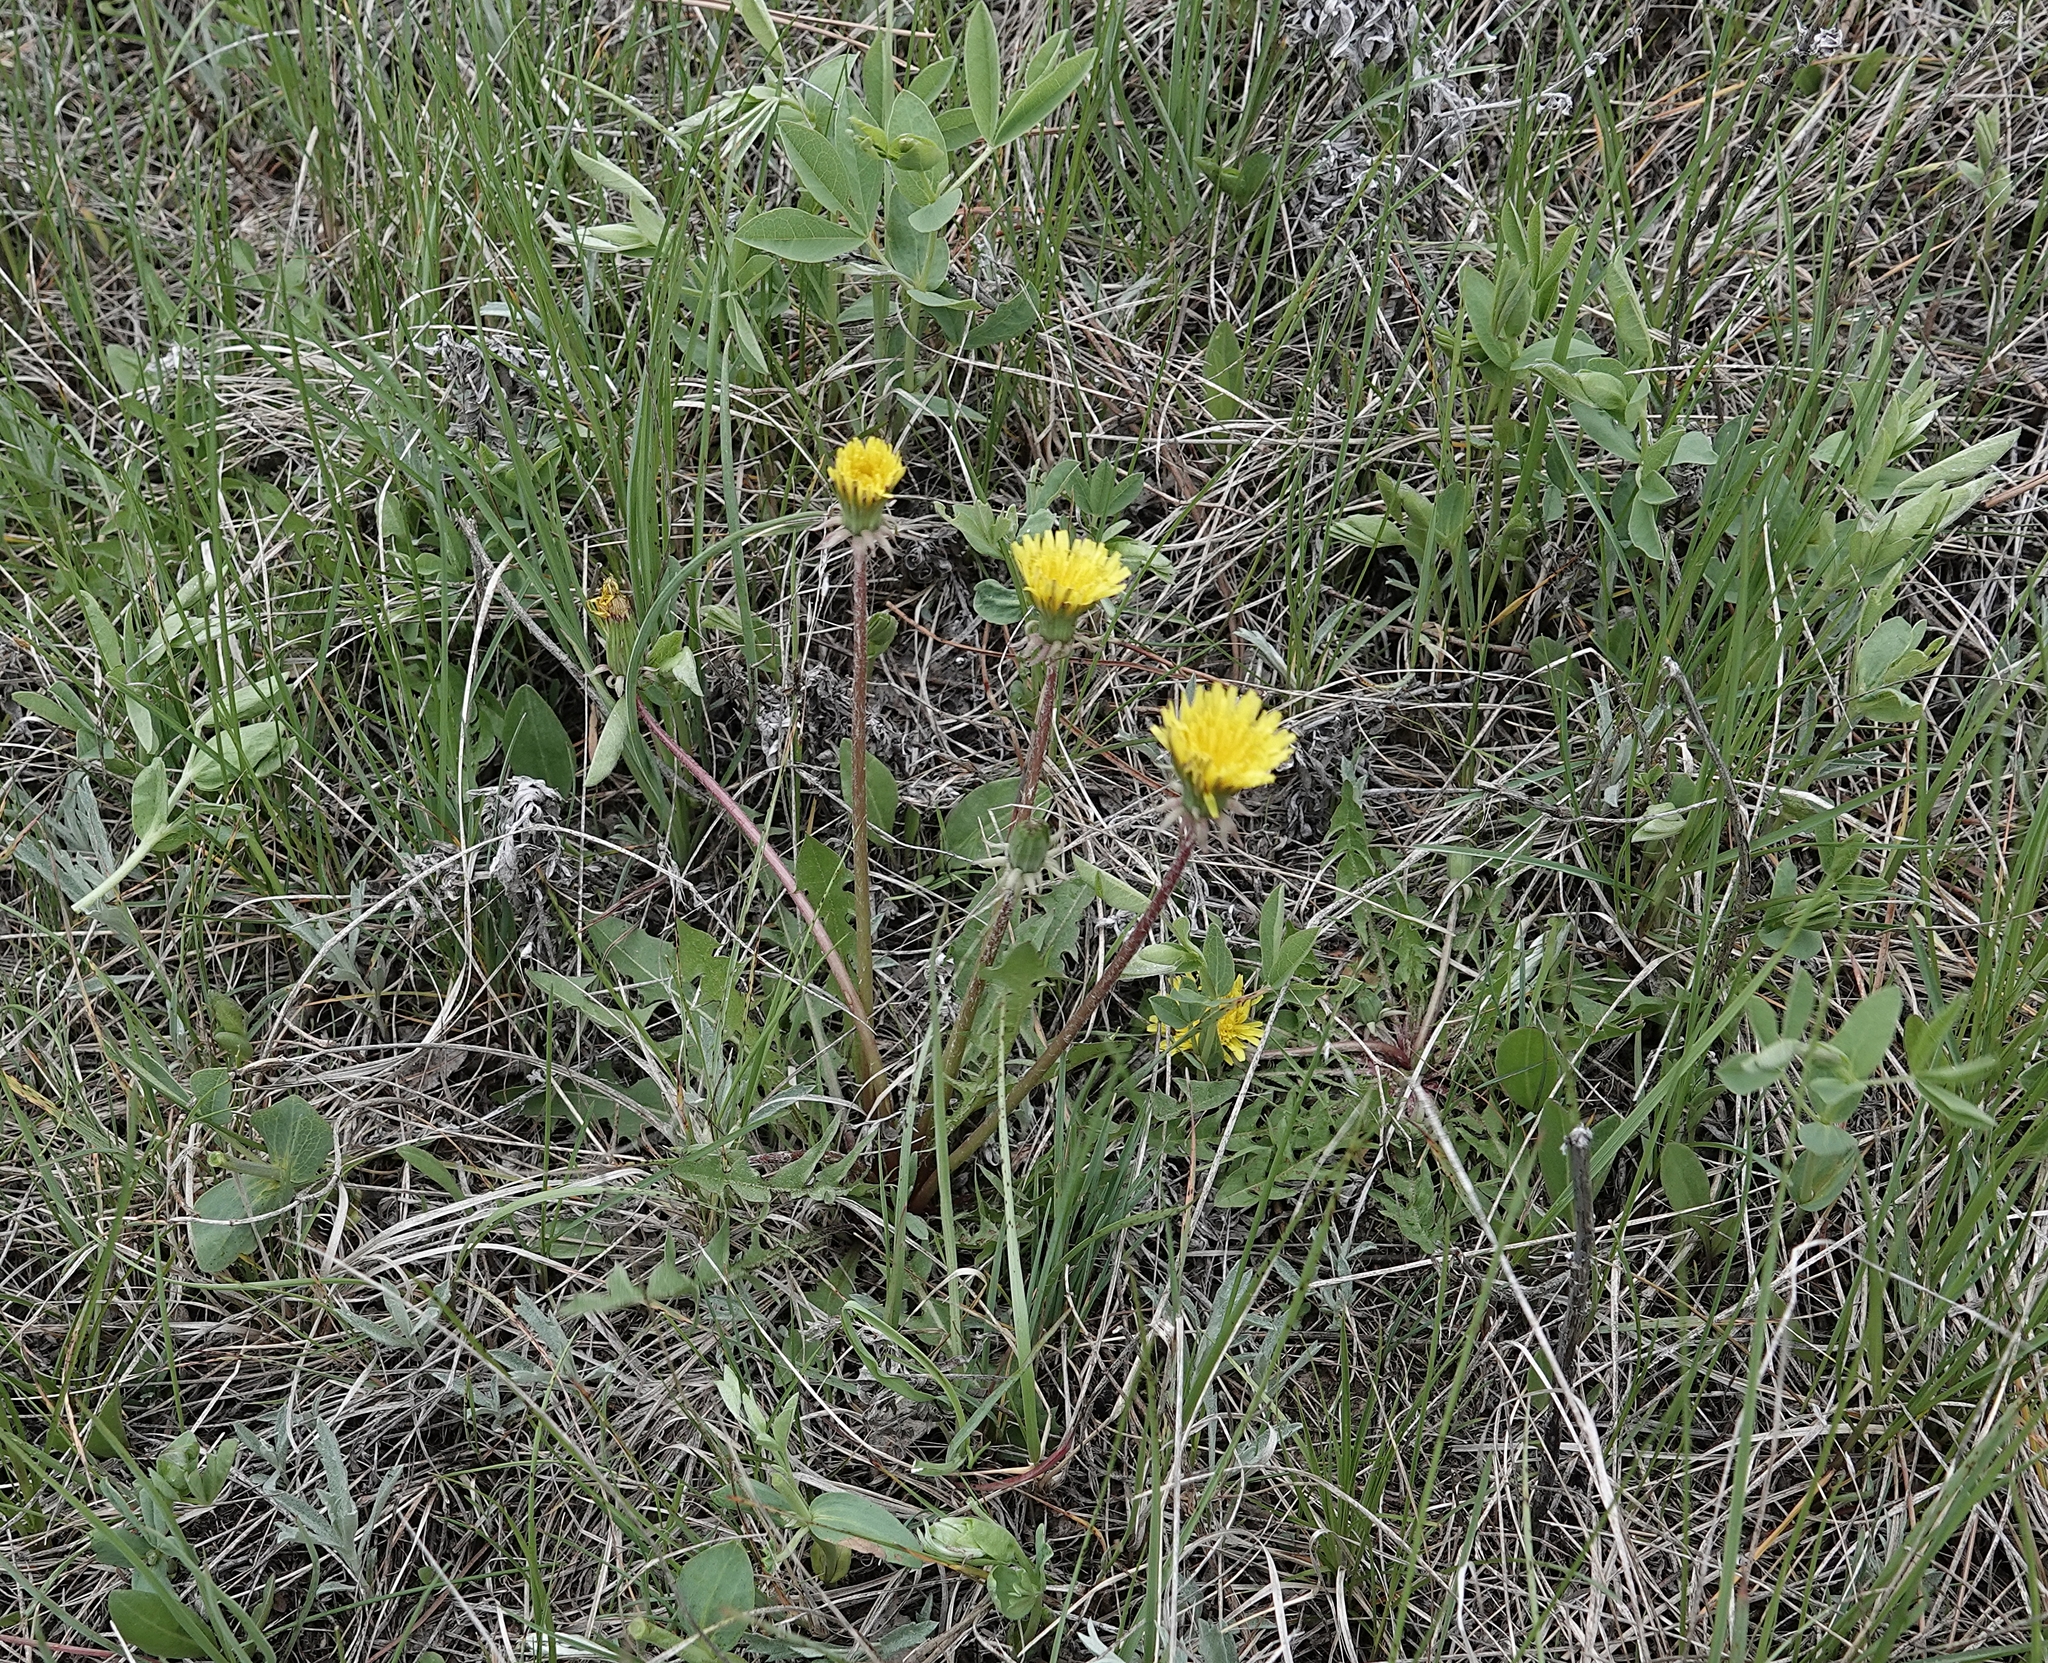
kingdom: Plantae
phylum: Tracheophyta
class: Magnoliopsida
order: Asterales
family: Asteraceae
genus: Taraxacum
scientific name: Taraxacum
